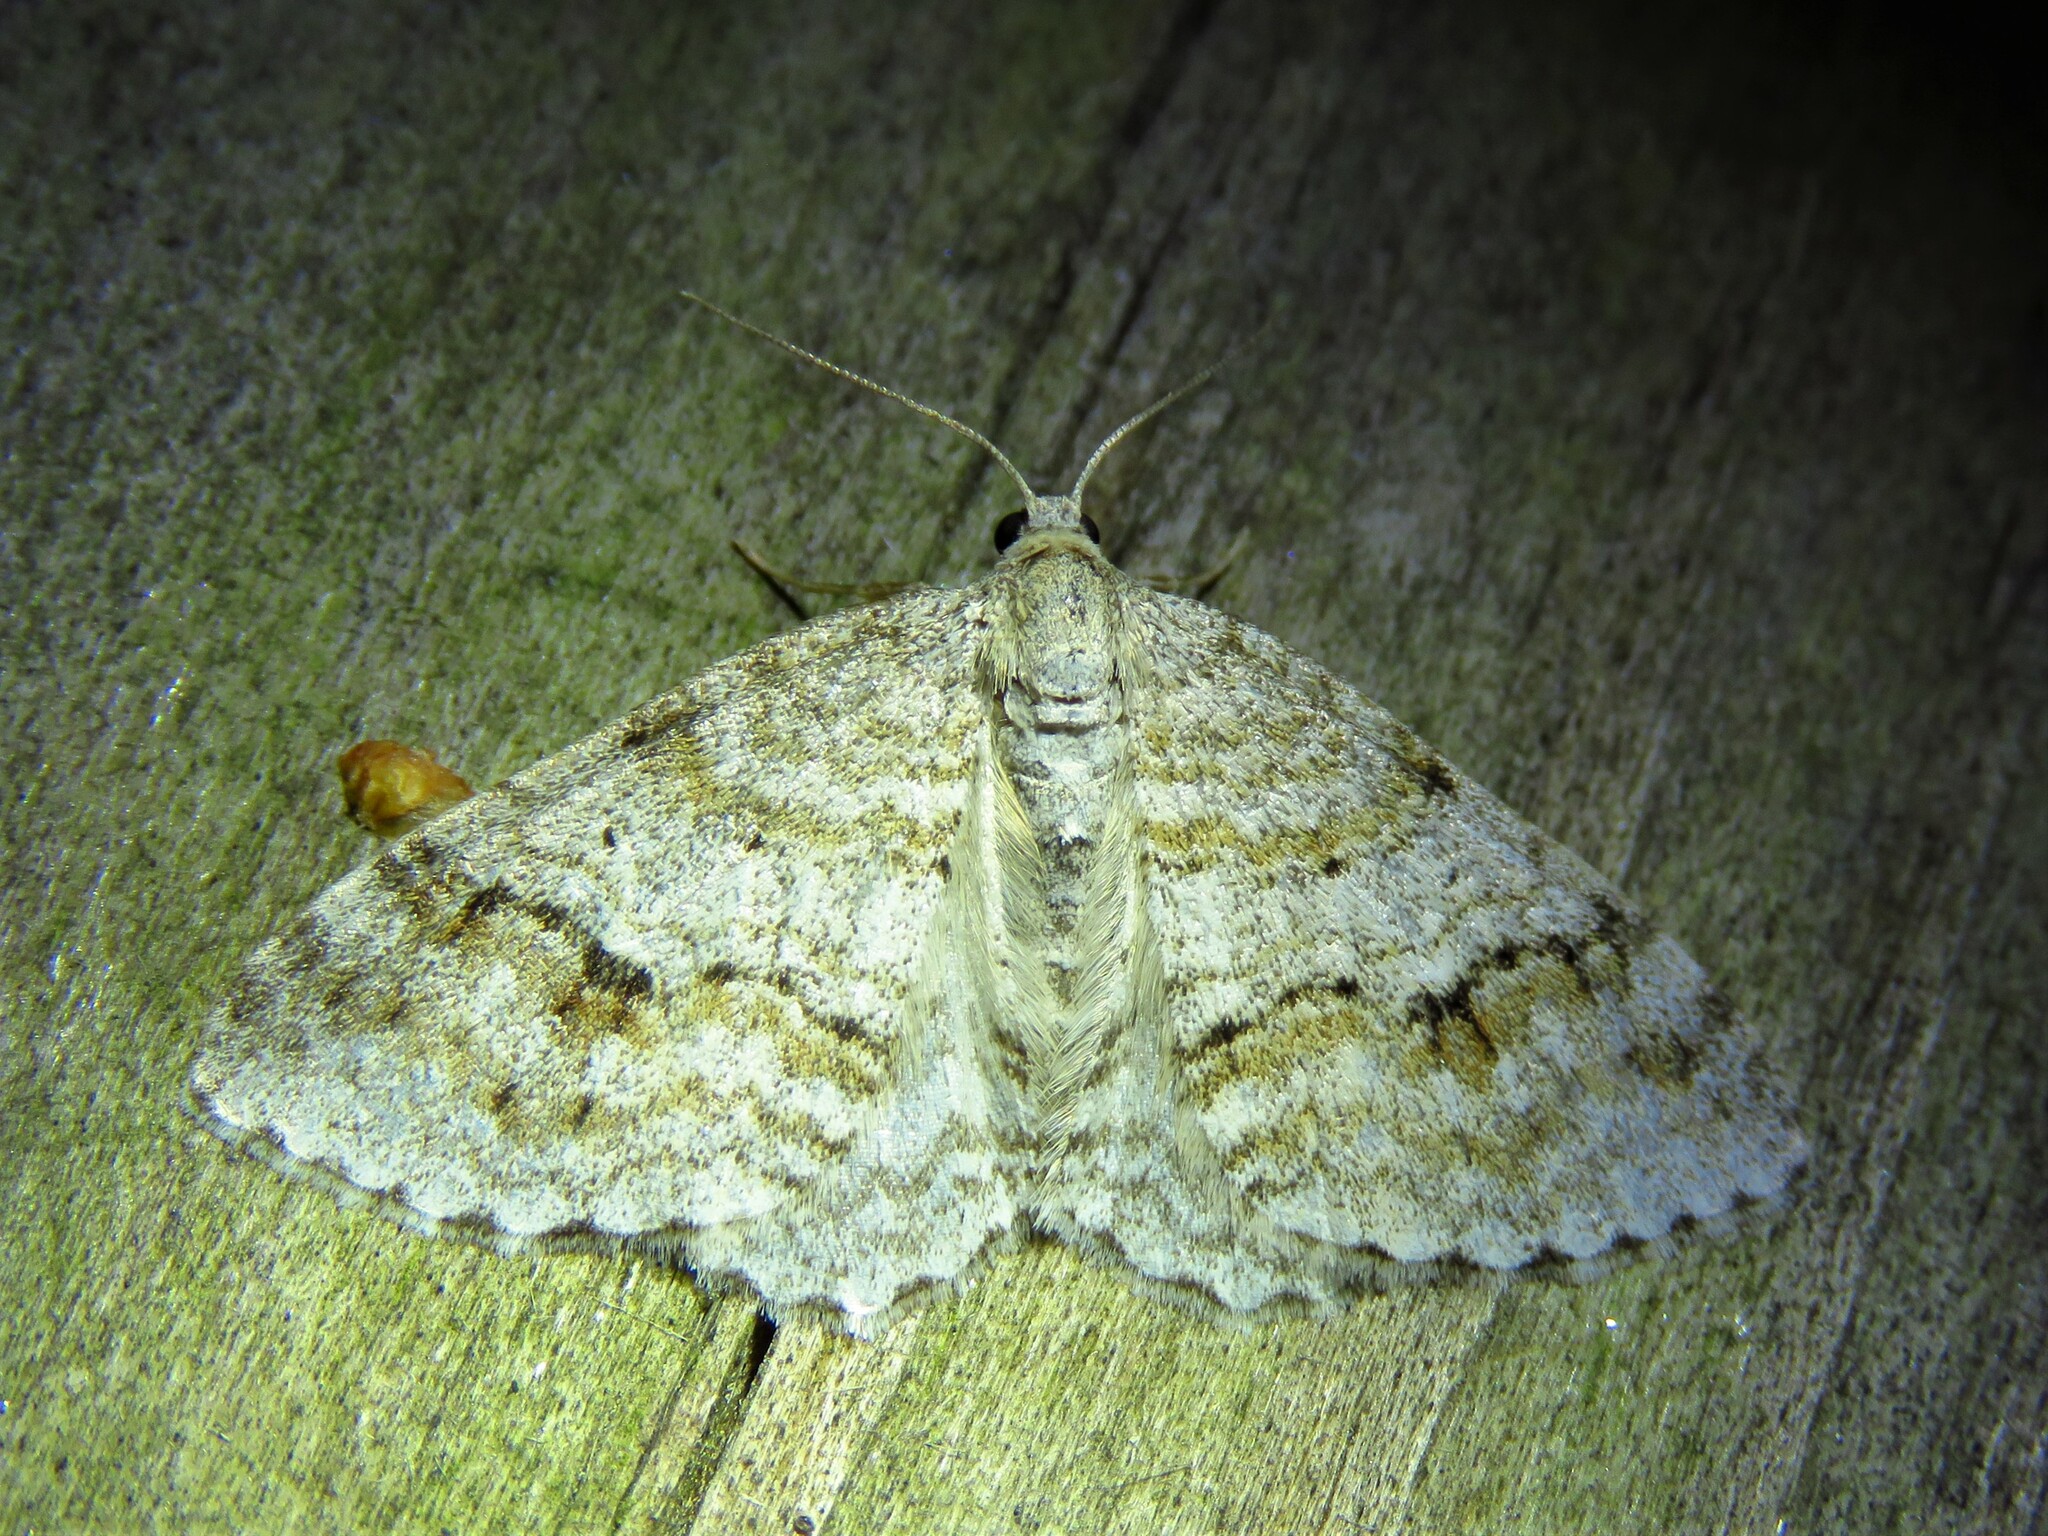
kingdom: Animalia
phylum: Arthropoda
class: Insecta
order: Lepidoptera
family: Geometridae
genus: Venusia
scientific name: Venusia cambrica
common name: Welsh wave
